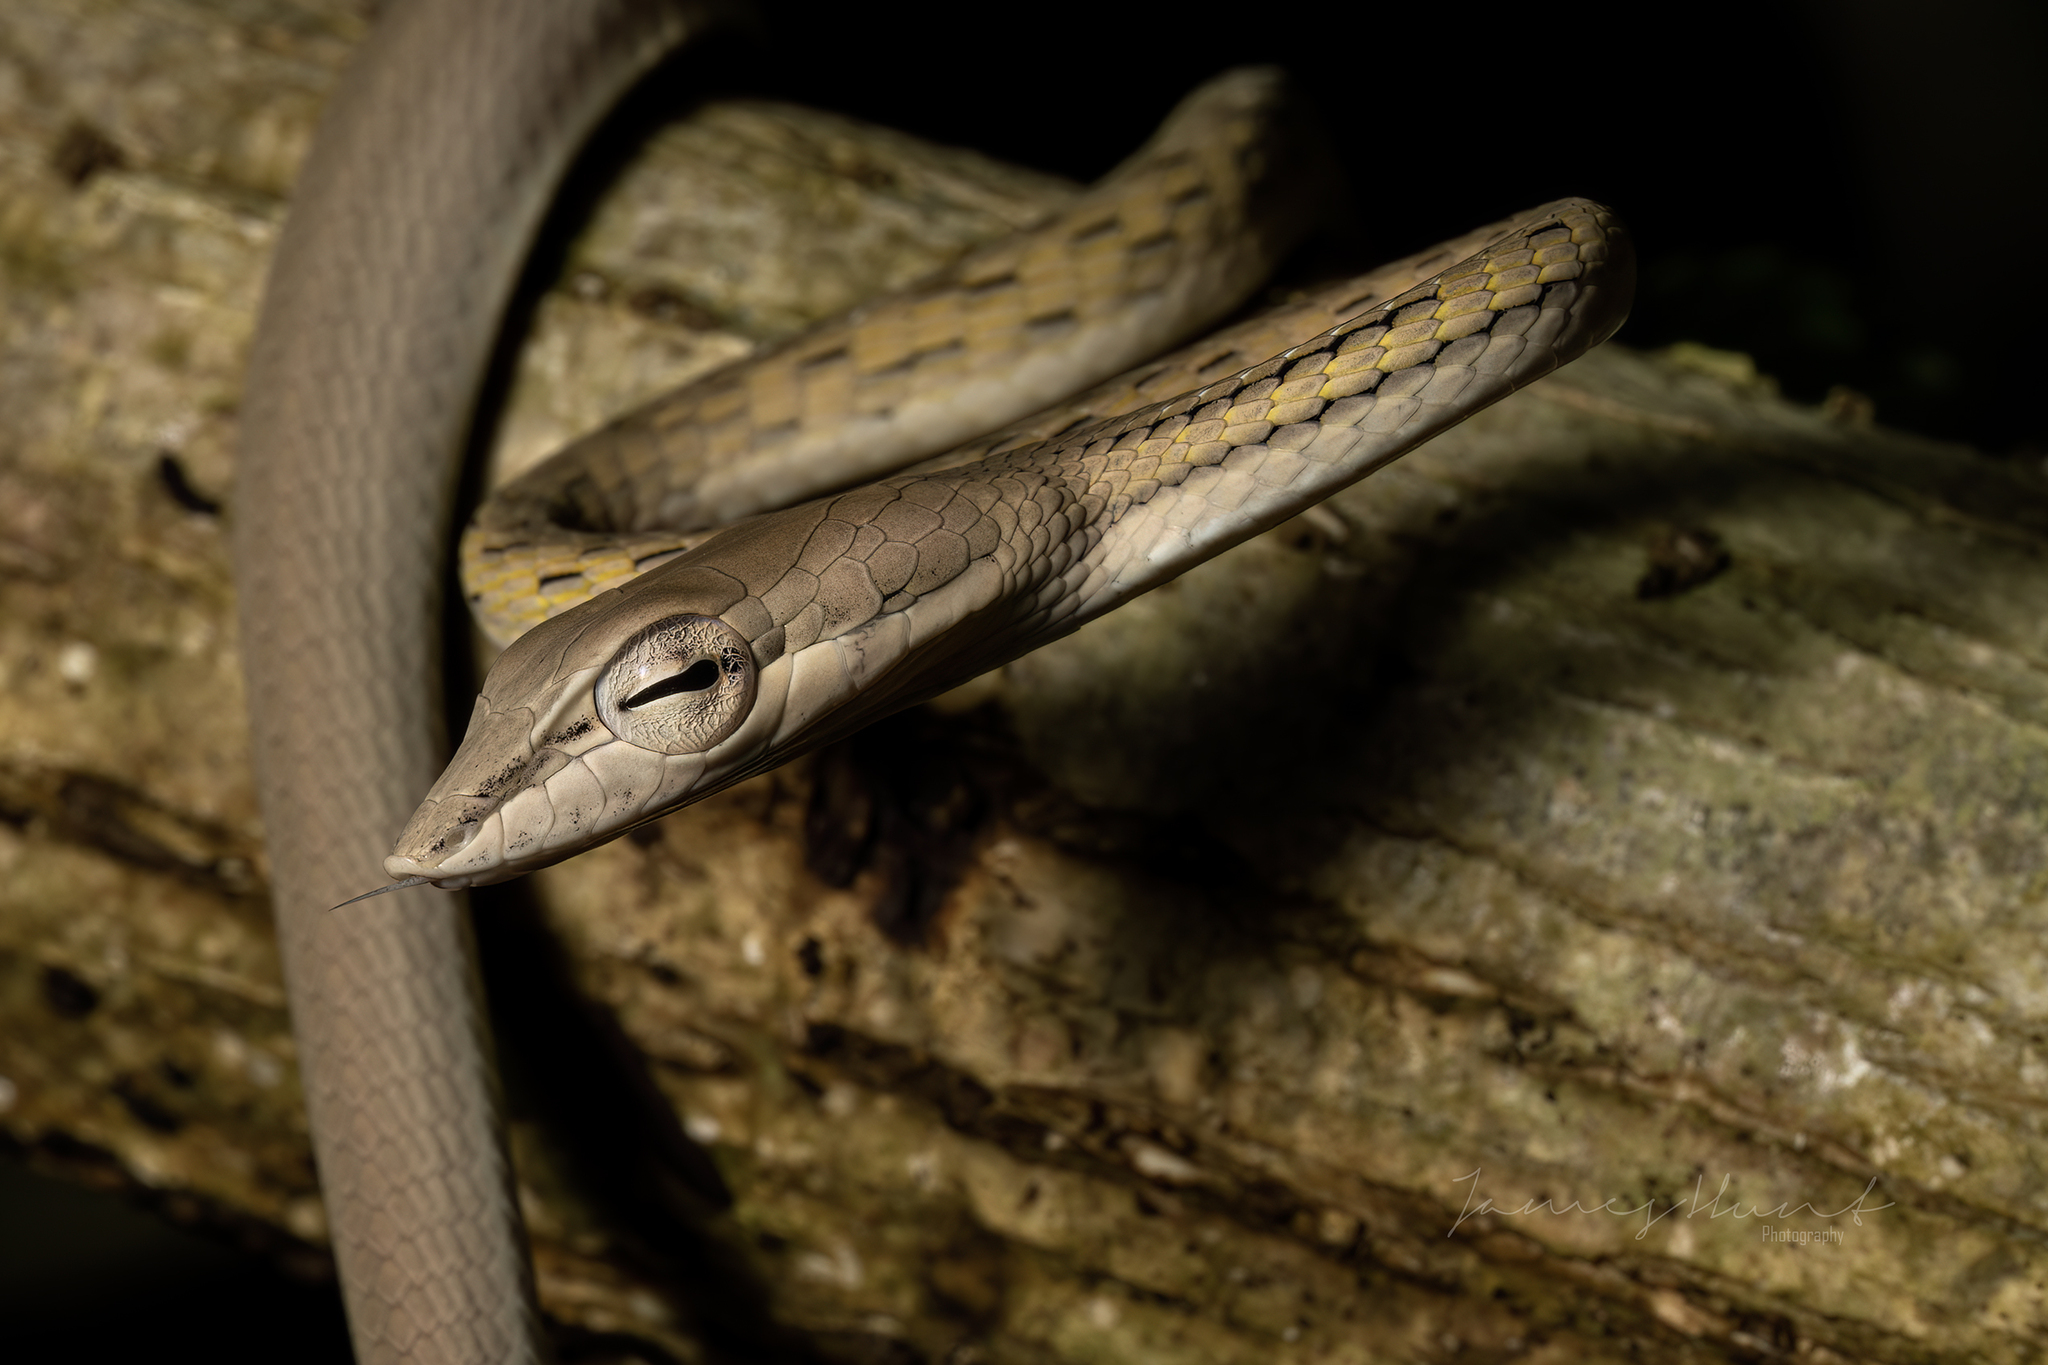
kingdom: Animalia
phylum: Chordata
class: Squamata
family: Colubridae
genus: Ahaetulla
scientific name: Ahaetulla prasina
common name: Oriental whip snake
